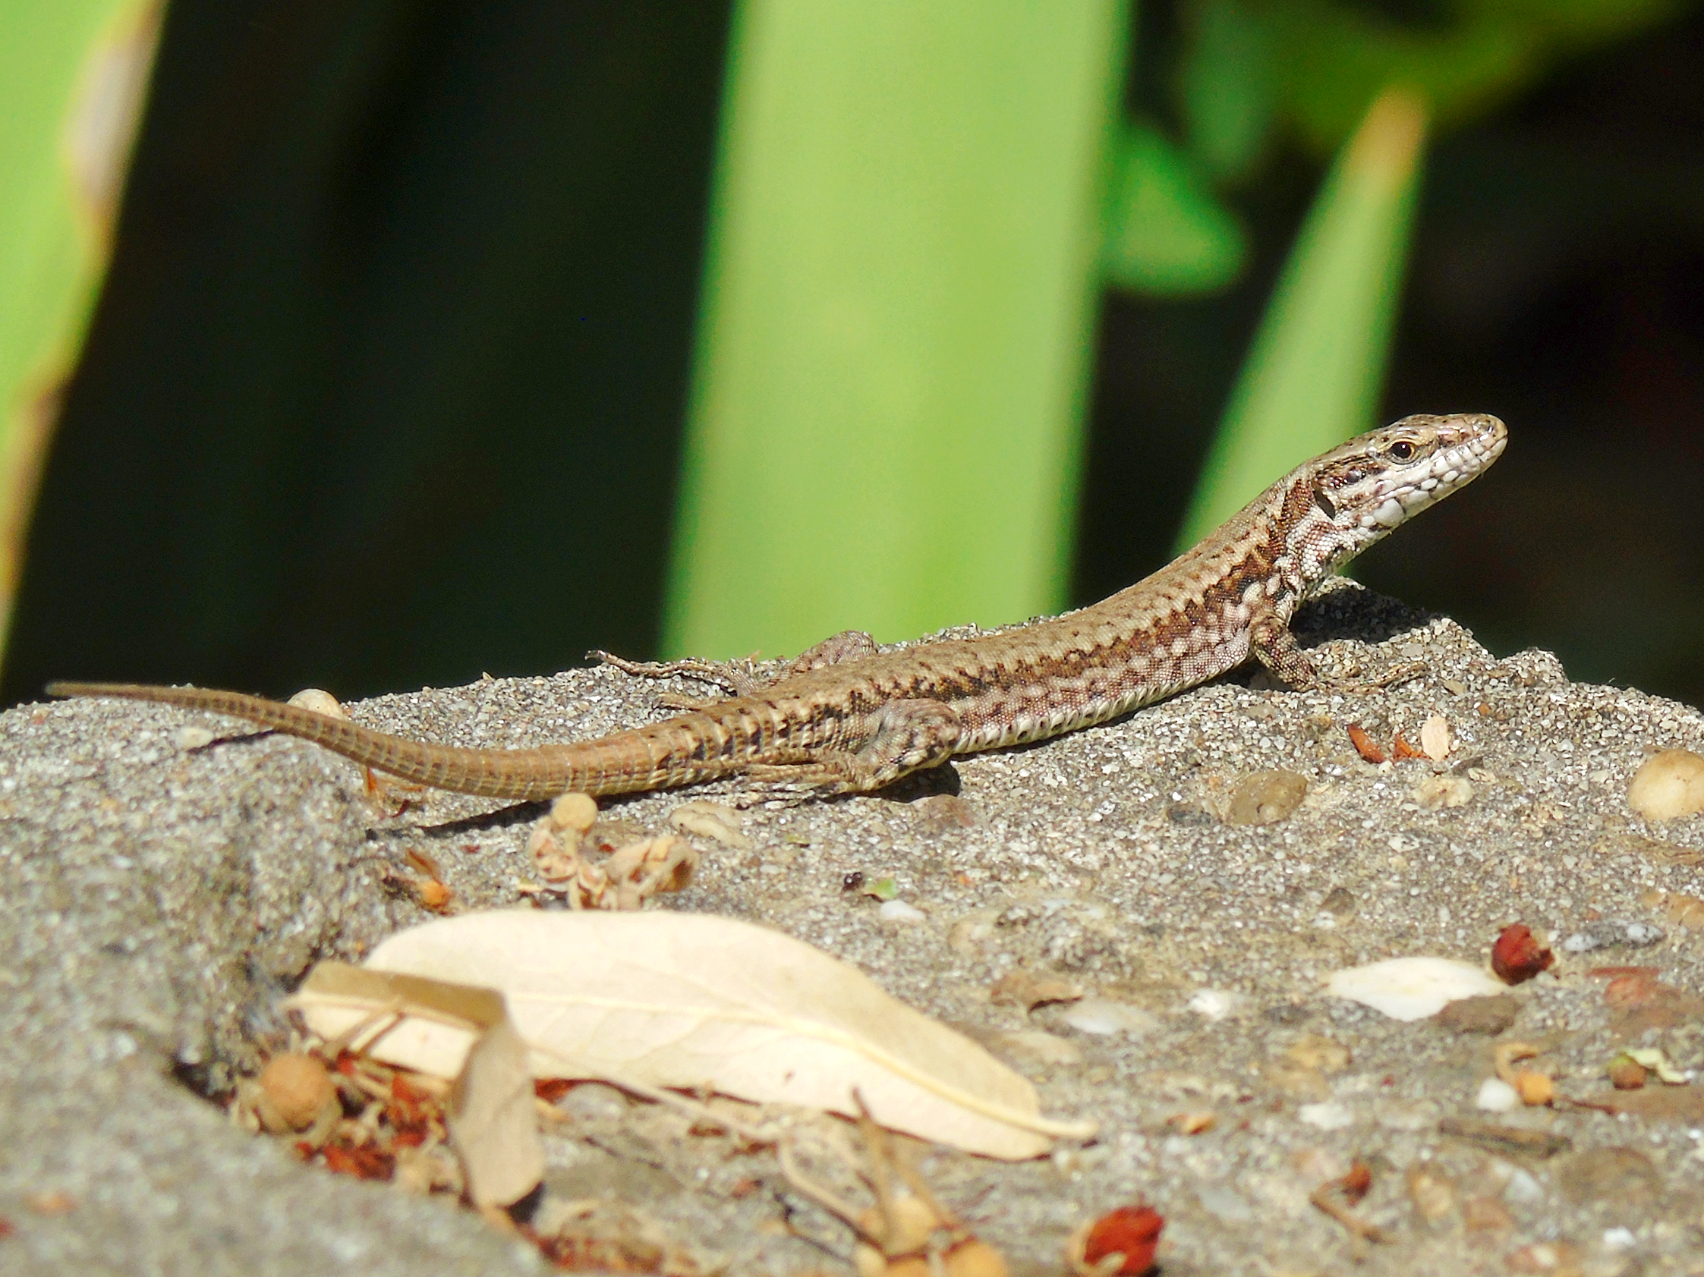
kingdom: Animalia
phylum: Chordata
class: Squamata
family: Lacertidae
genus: Podarcis
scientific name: Podarcis muralis
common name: Common wall lizard
